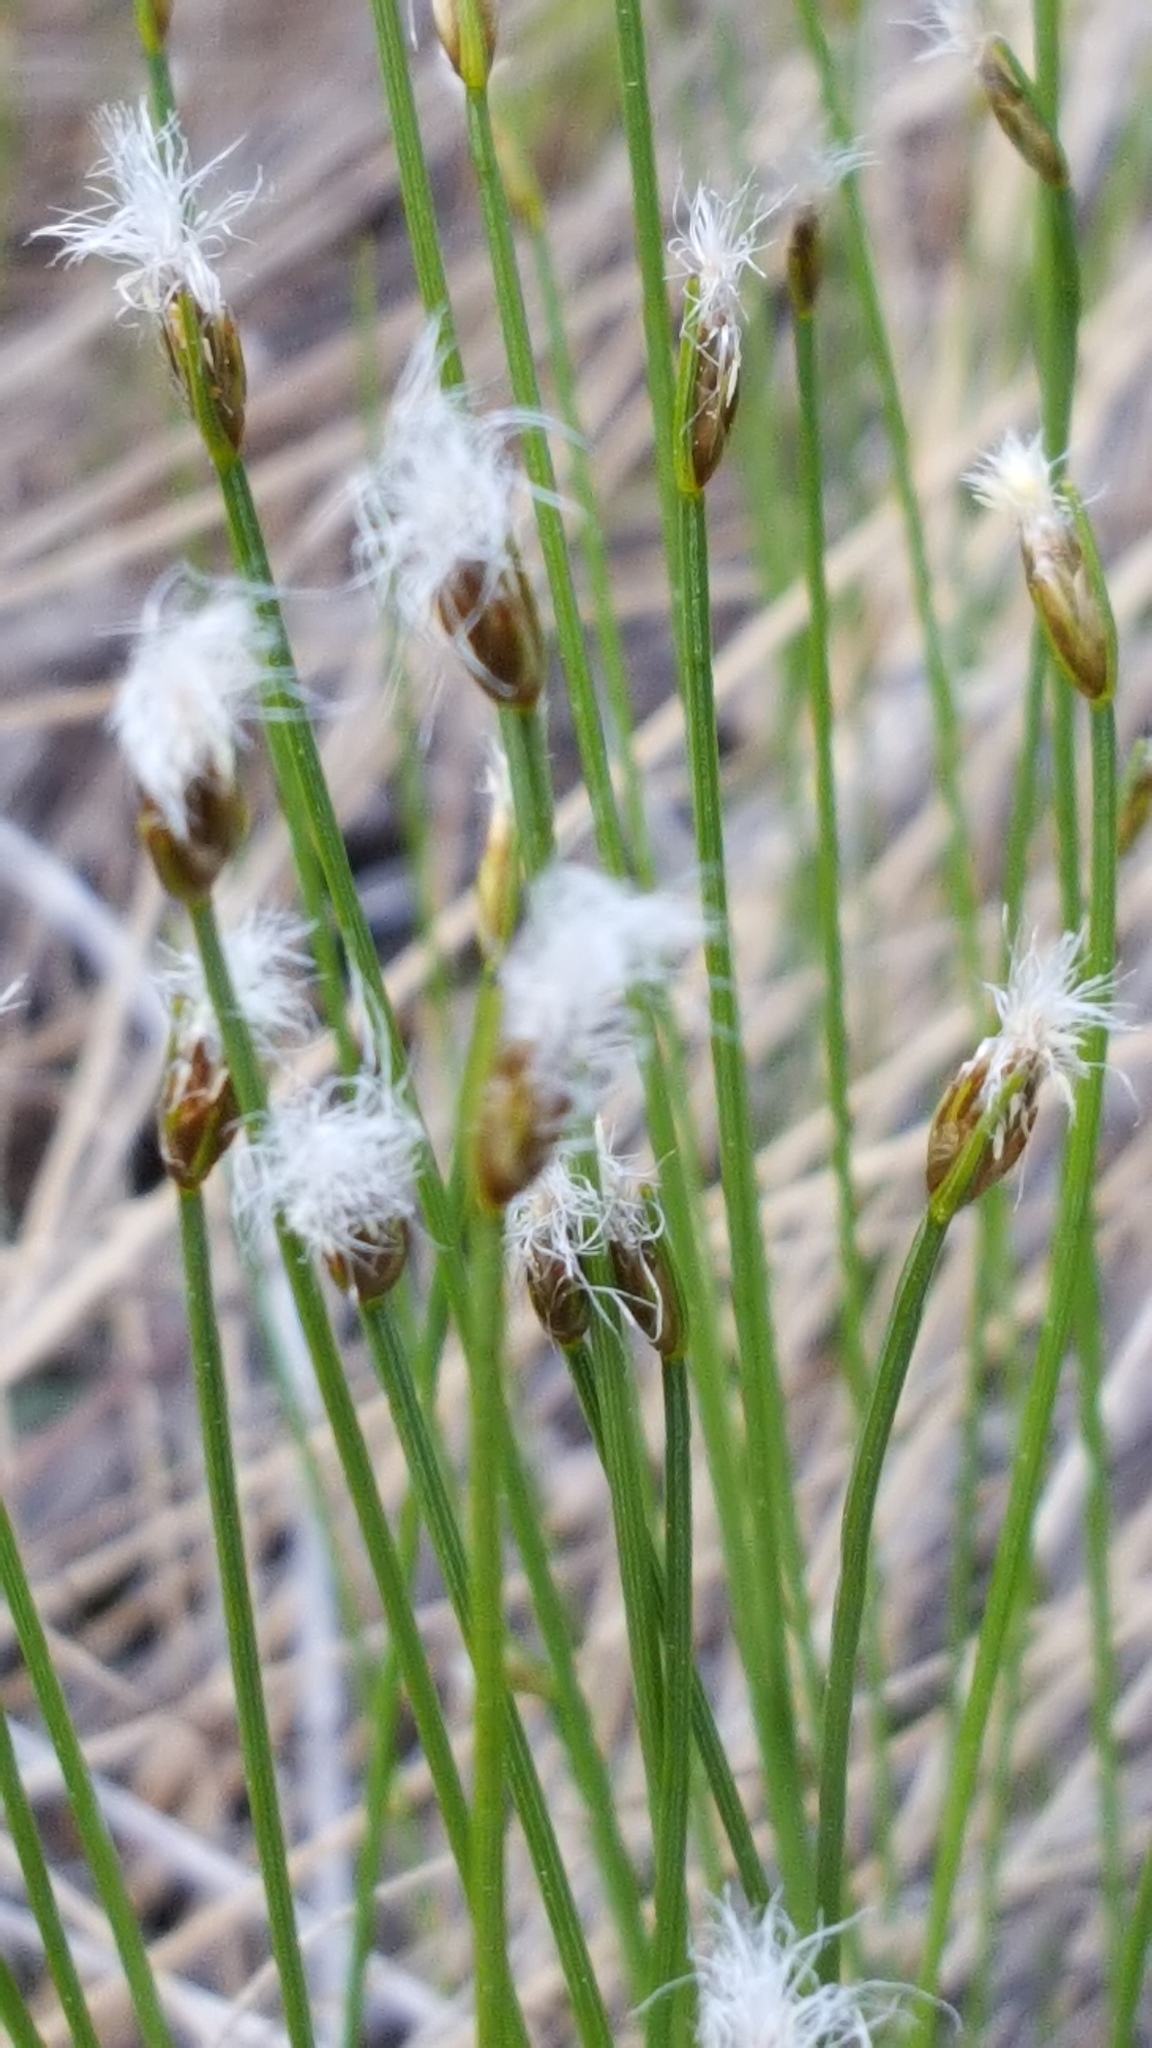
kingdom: Plantae
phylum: Tracheophyta
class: Liliopsida
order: Poales
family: Cyperaceae
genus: Trichophorum
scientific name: Trichophorum alpinum
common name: Alpine bulrush
